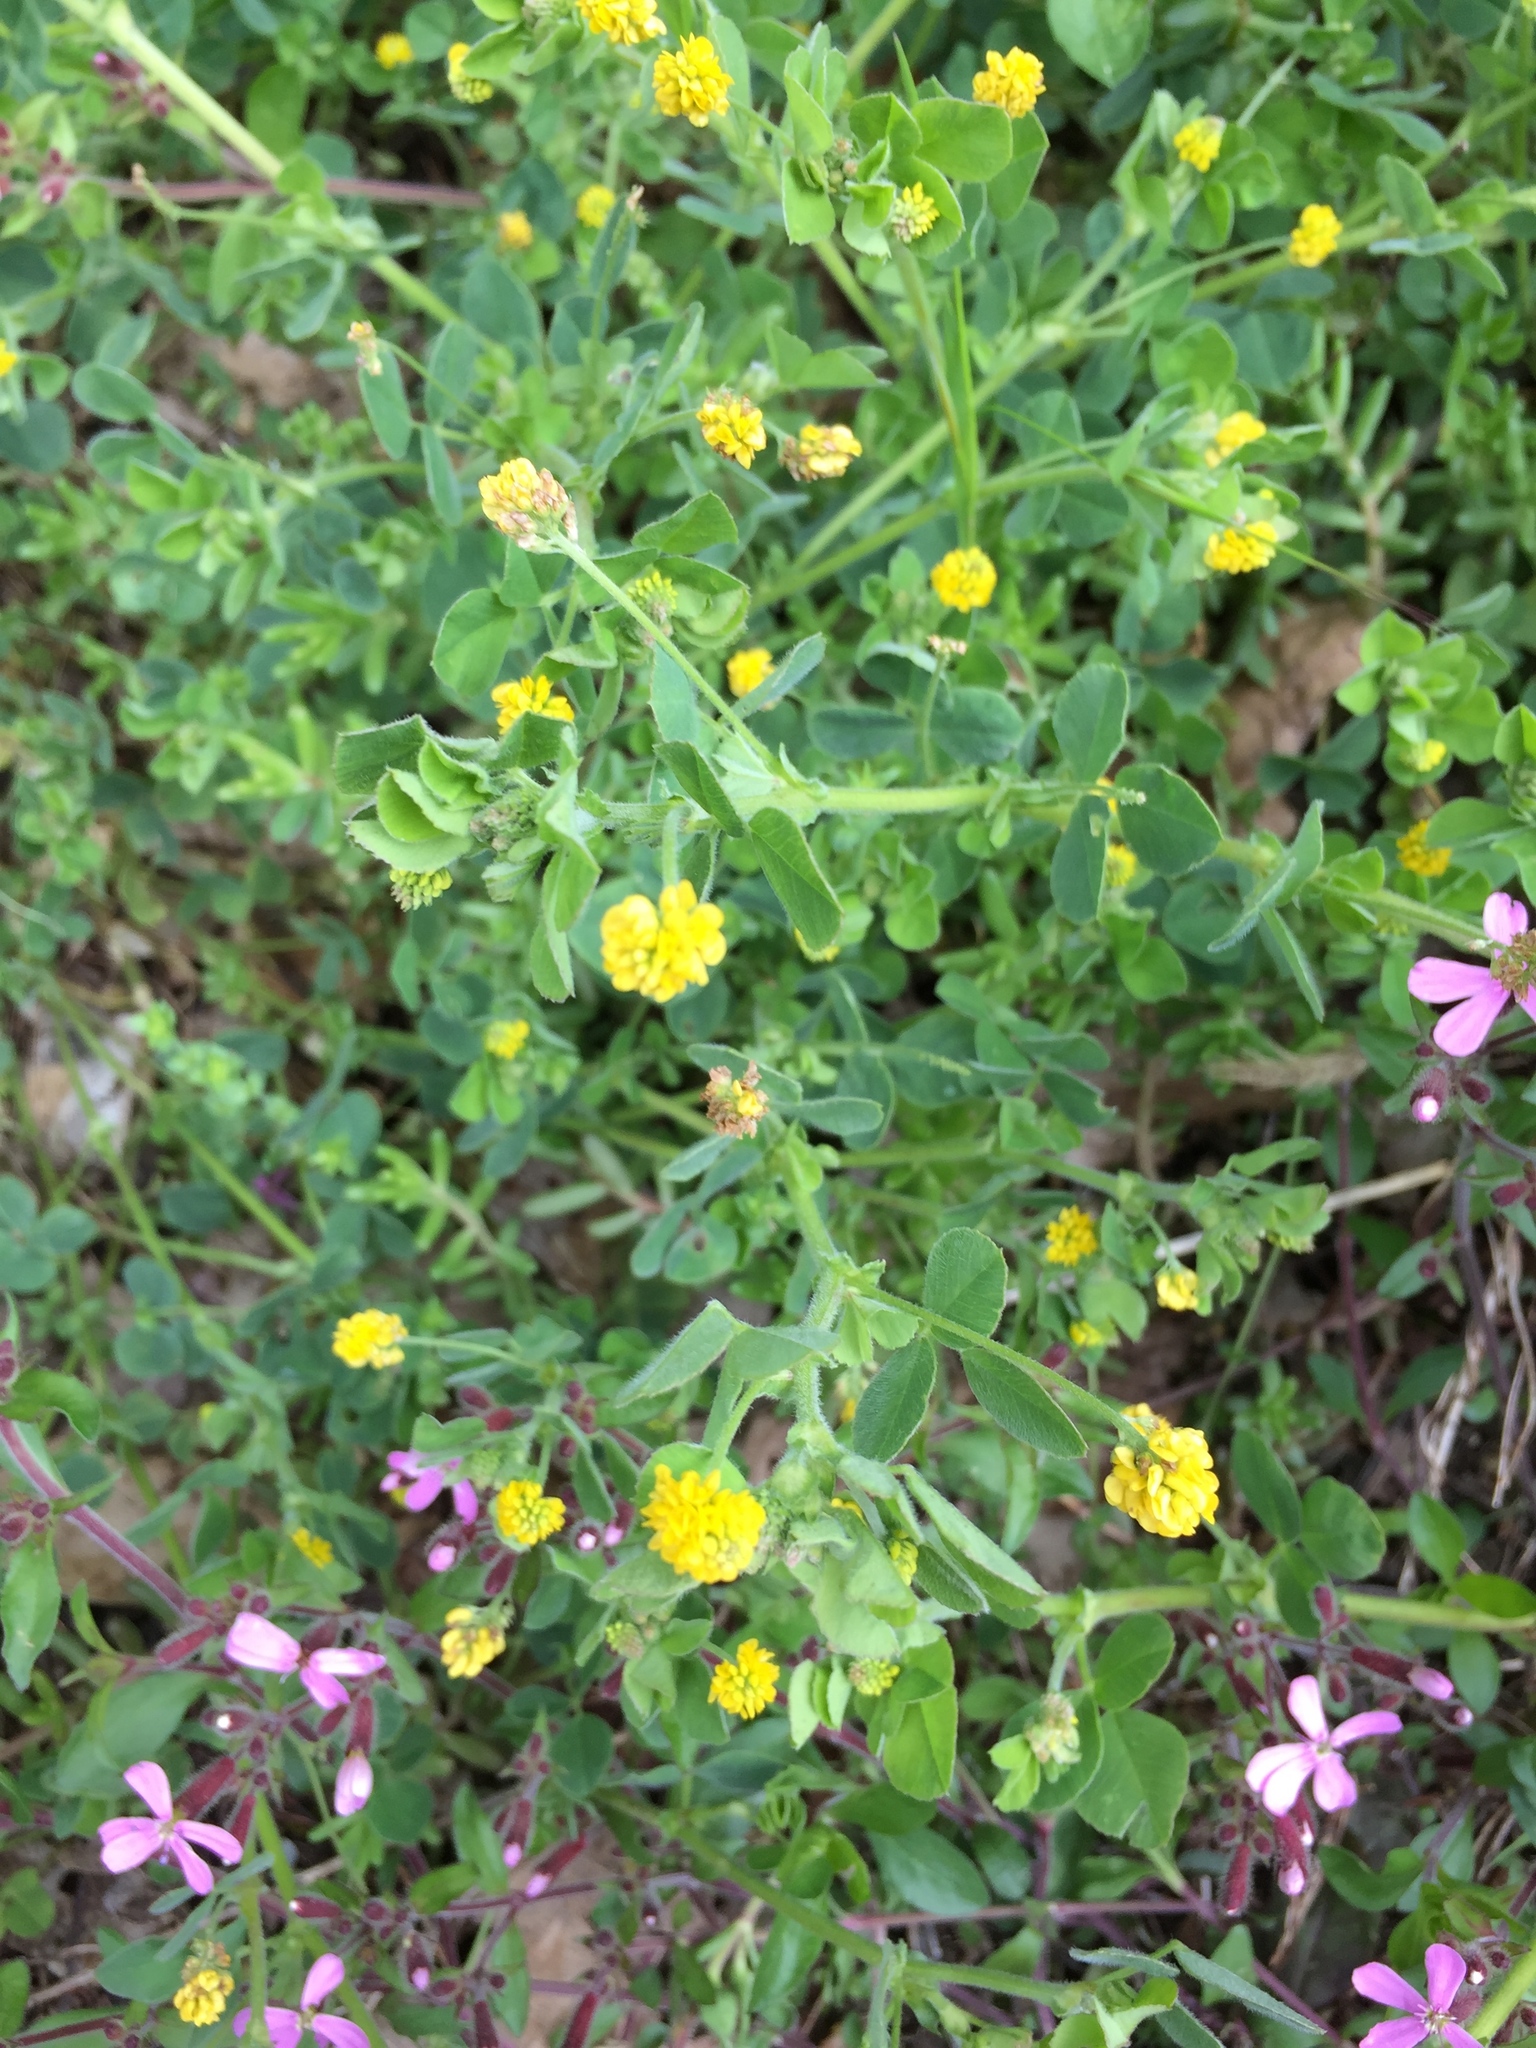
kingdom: Plantae
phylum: Tracheophyta
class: Magnoliopsida
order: Fabales
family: Fabaceae
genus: Medicago
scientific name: Medicago lupulina
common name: Black medick
